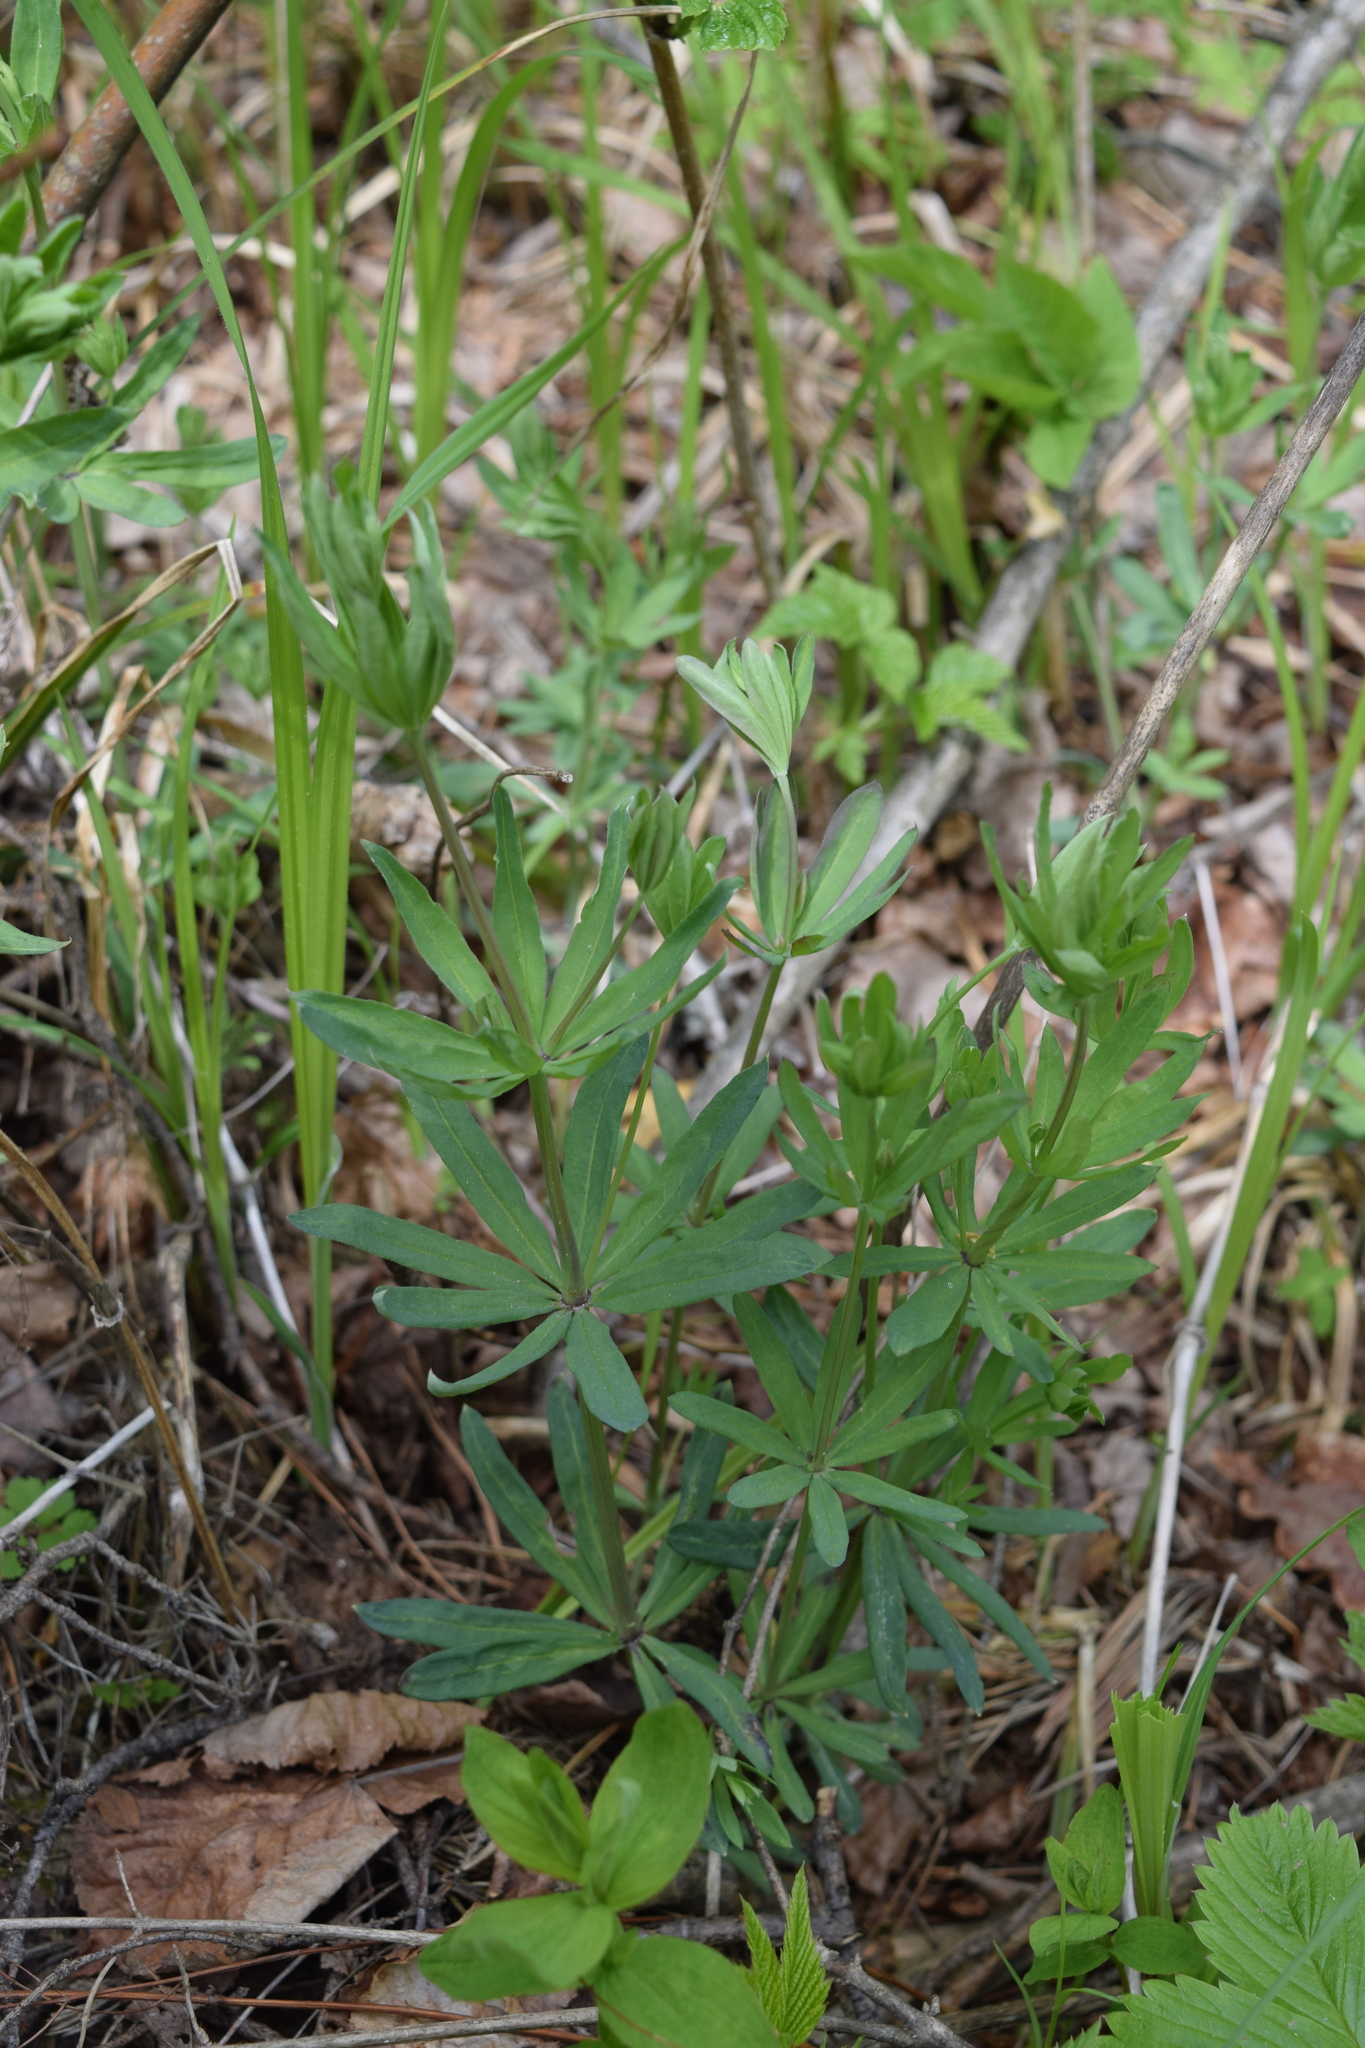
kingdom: Plantae
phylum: Tracheophyta
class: Magnoliopsida
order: Gentianales
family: Rubiaceae
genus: Galium
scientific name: Galium intermedium
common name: Bedstraw
